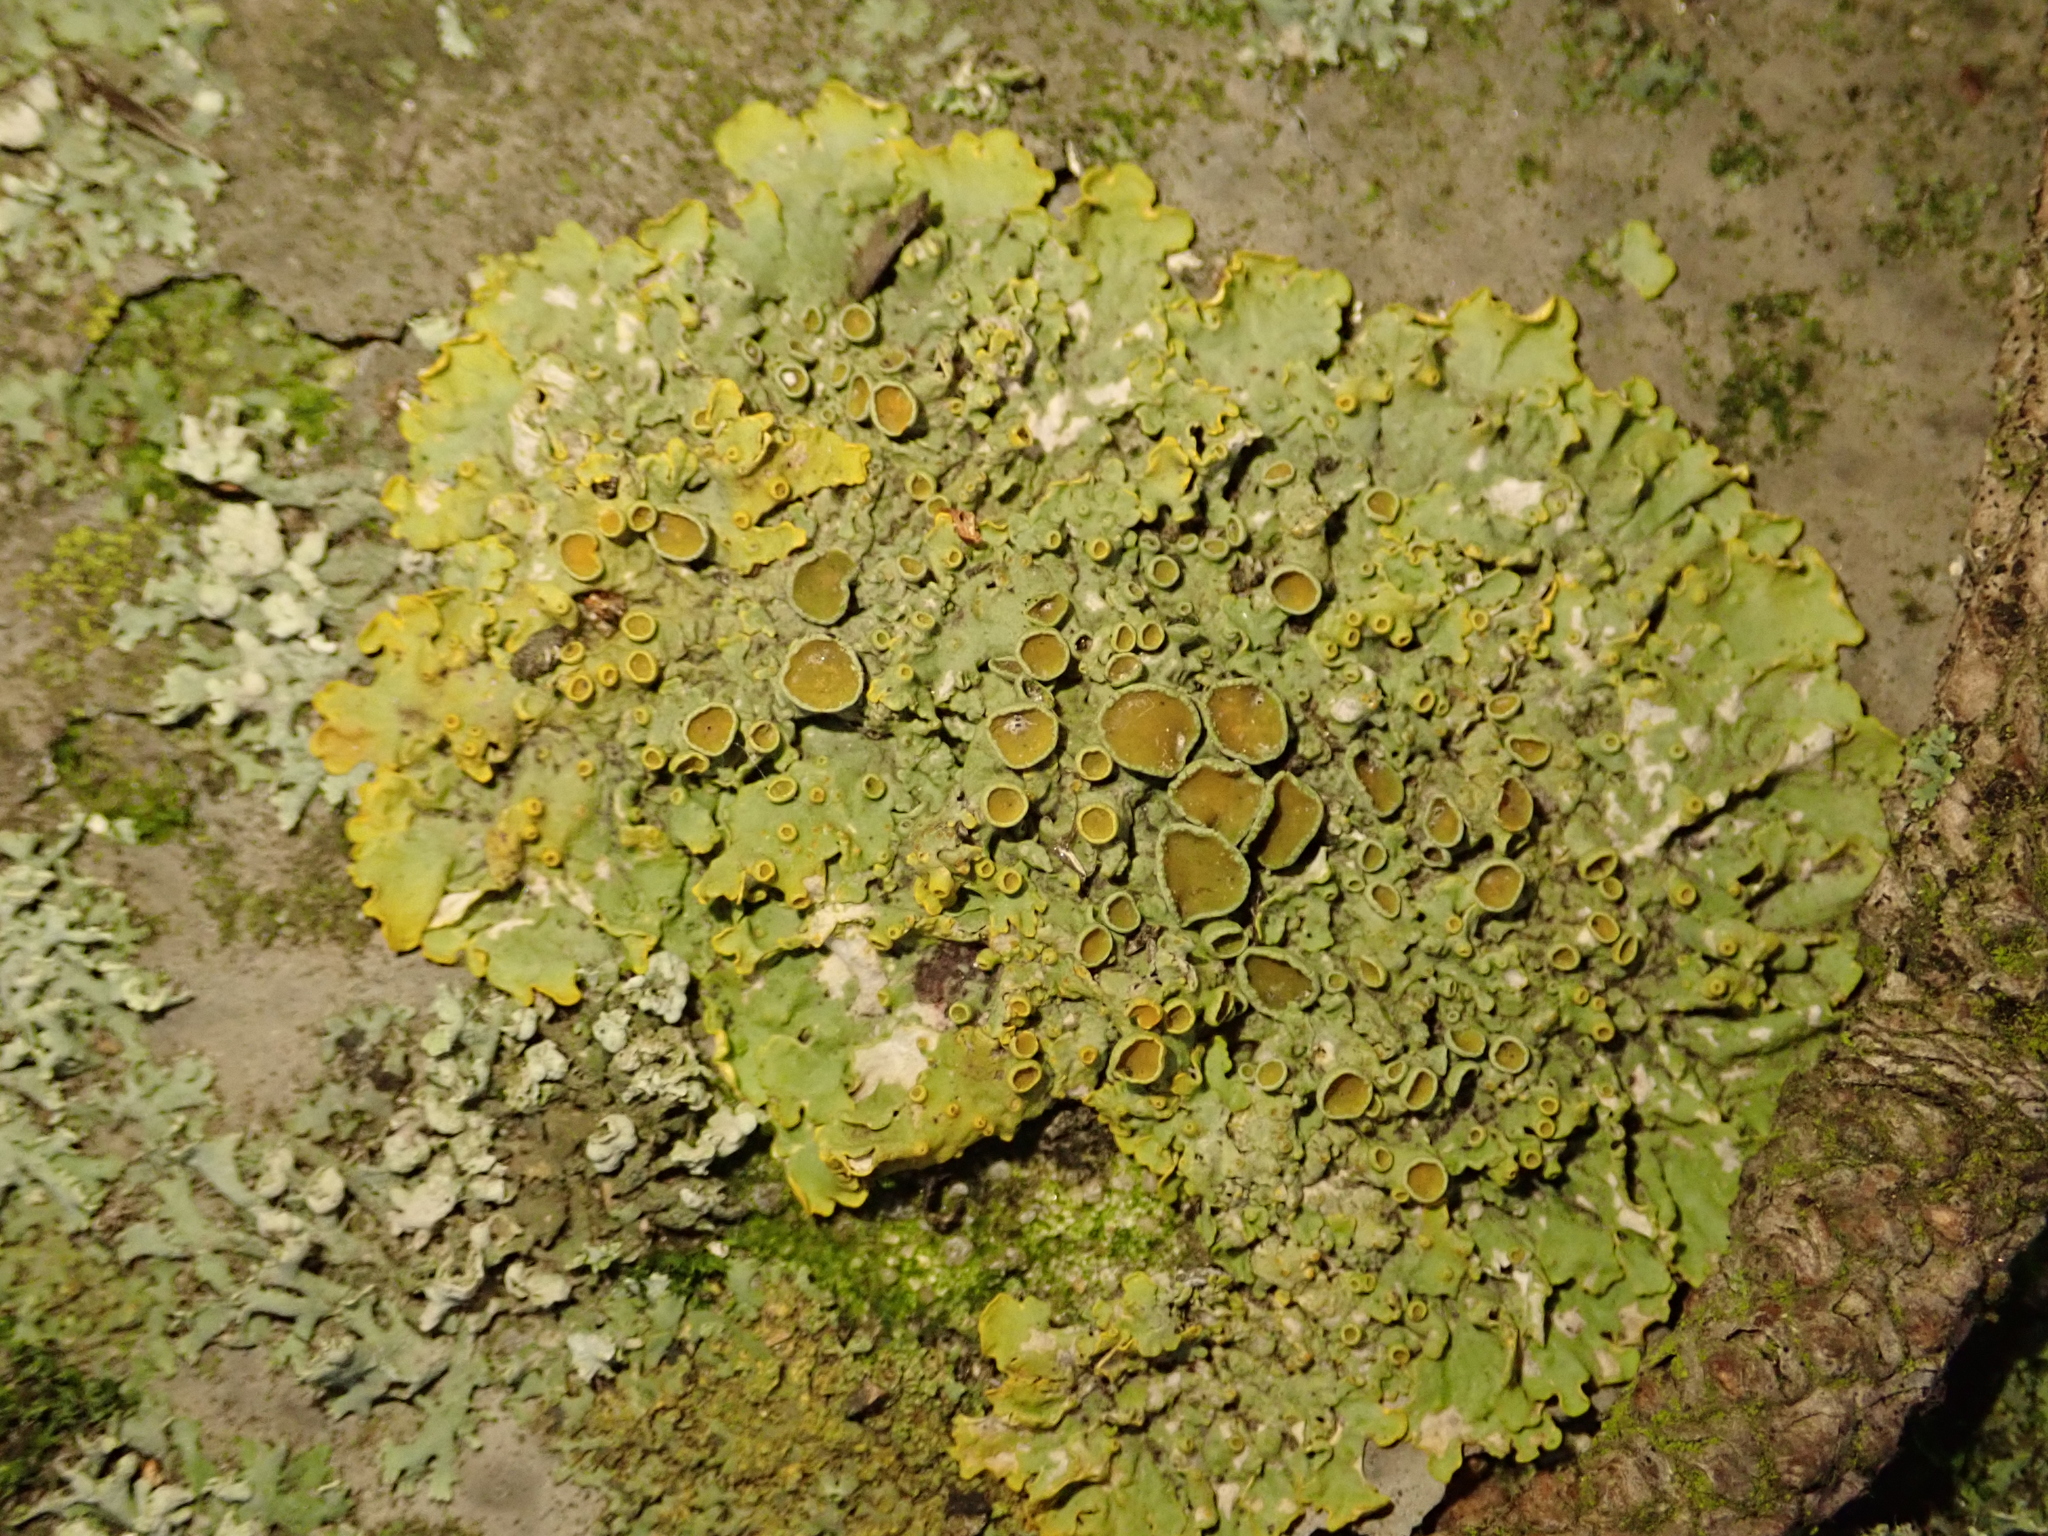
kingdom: Fungi
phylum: Ascomycota
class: Lecanoromycetes
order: Teloschistales
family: Teloschistaceae
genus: Xanthoria
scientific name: Xanthoria parietina
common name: Common orange lichen
